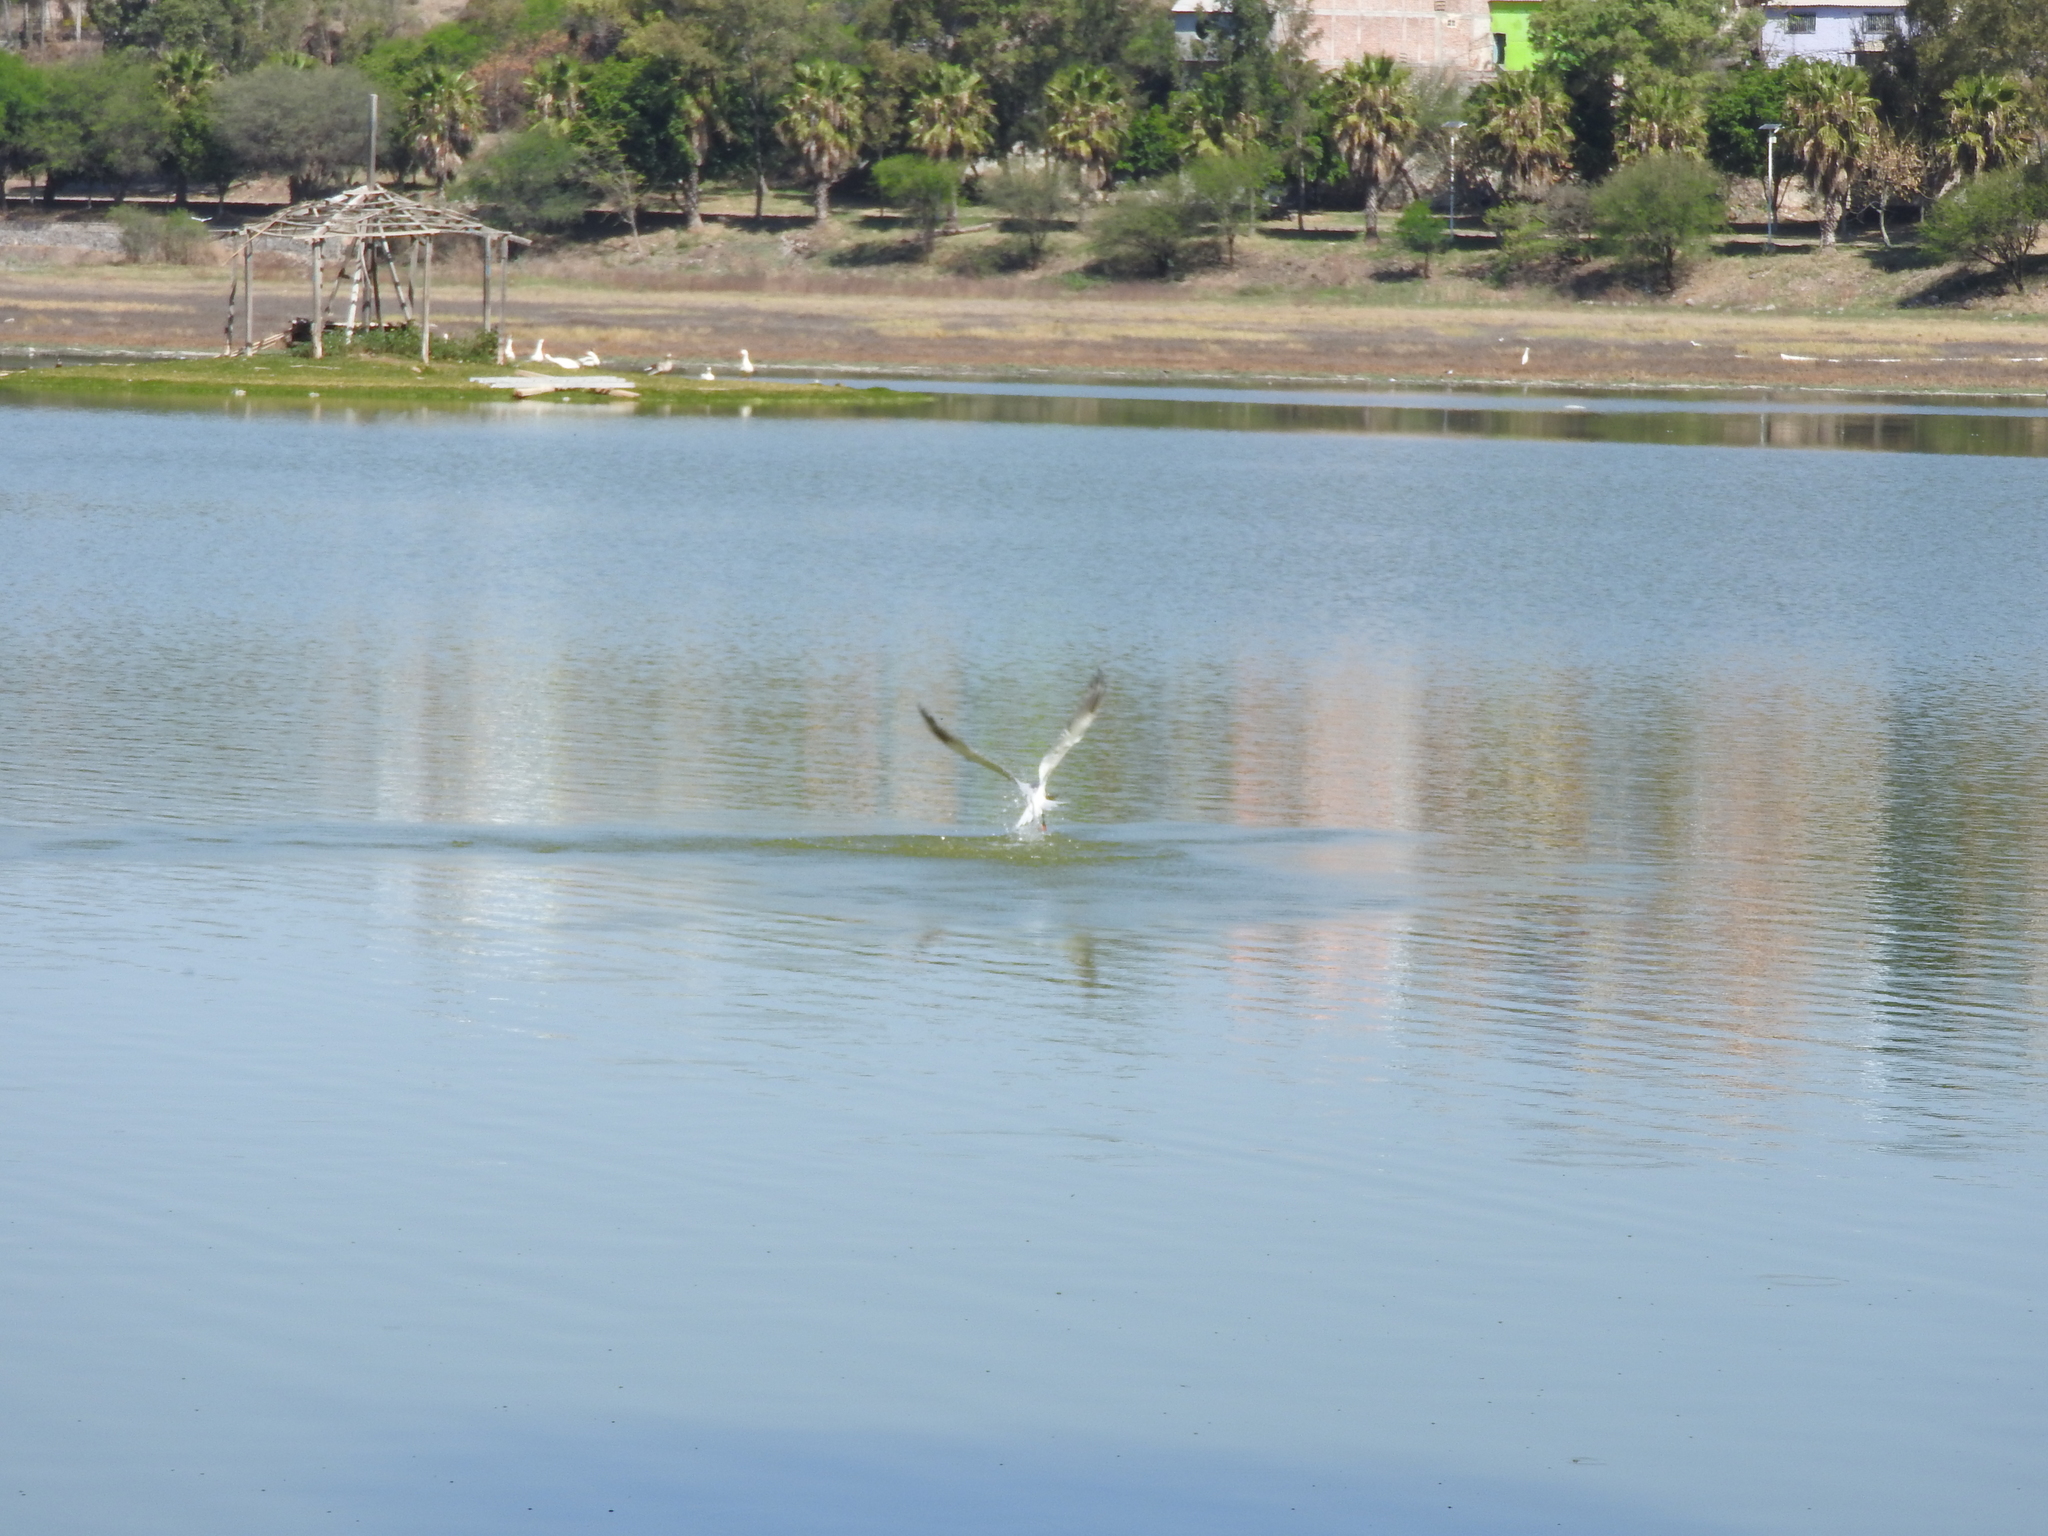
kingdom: Animalia
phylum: Chordata
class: Aves
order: Charadriiformes
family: Laridae
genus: Hydroprogne
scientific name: Hydroprogne caspia
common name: Caspian tern
